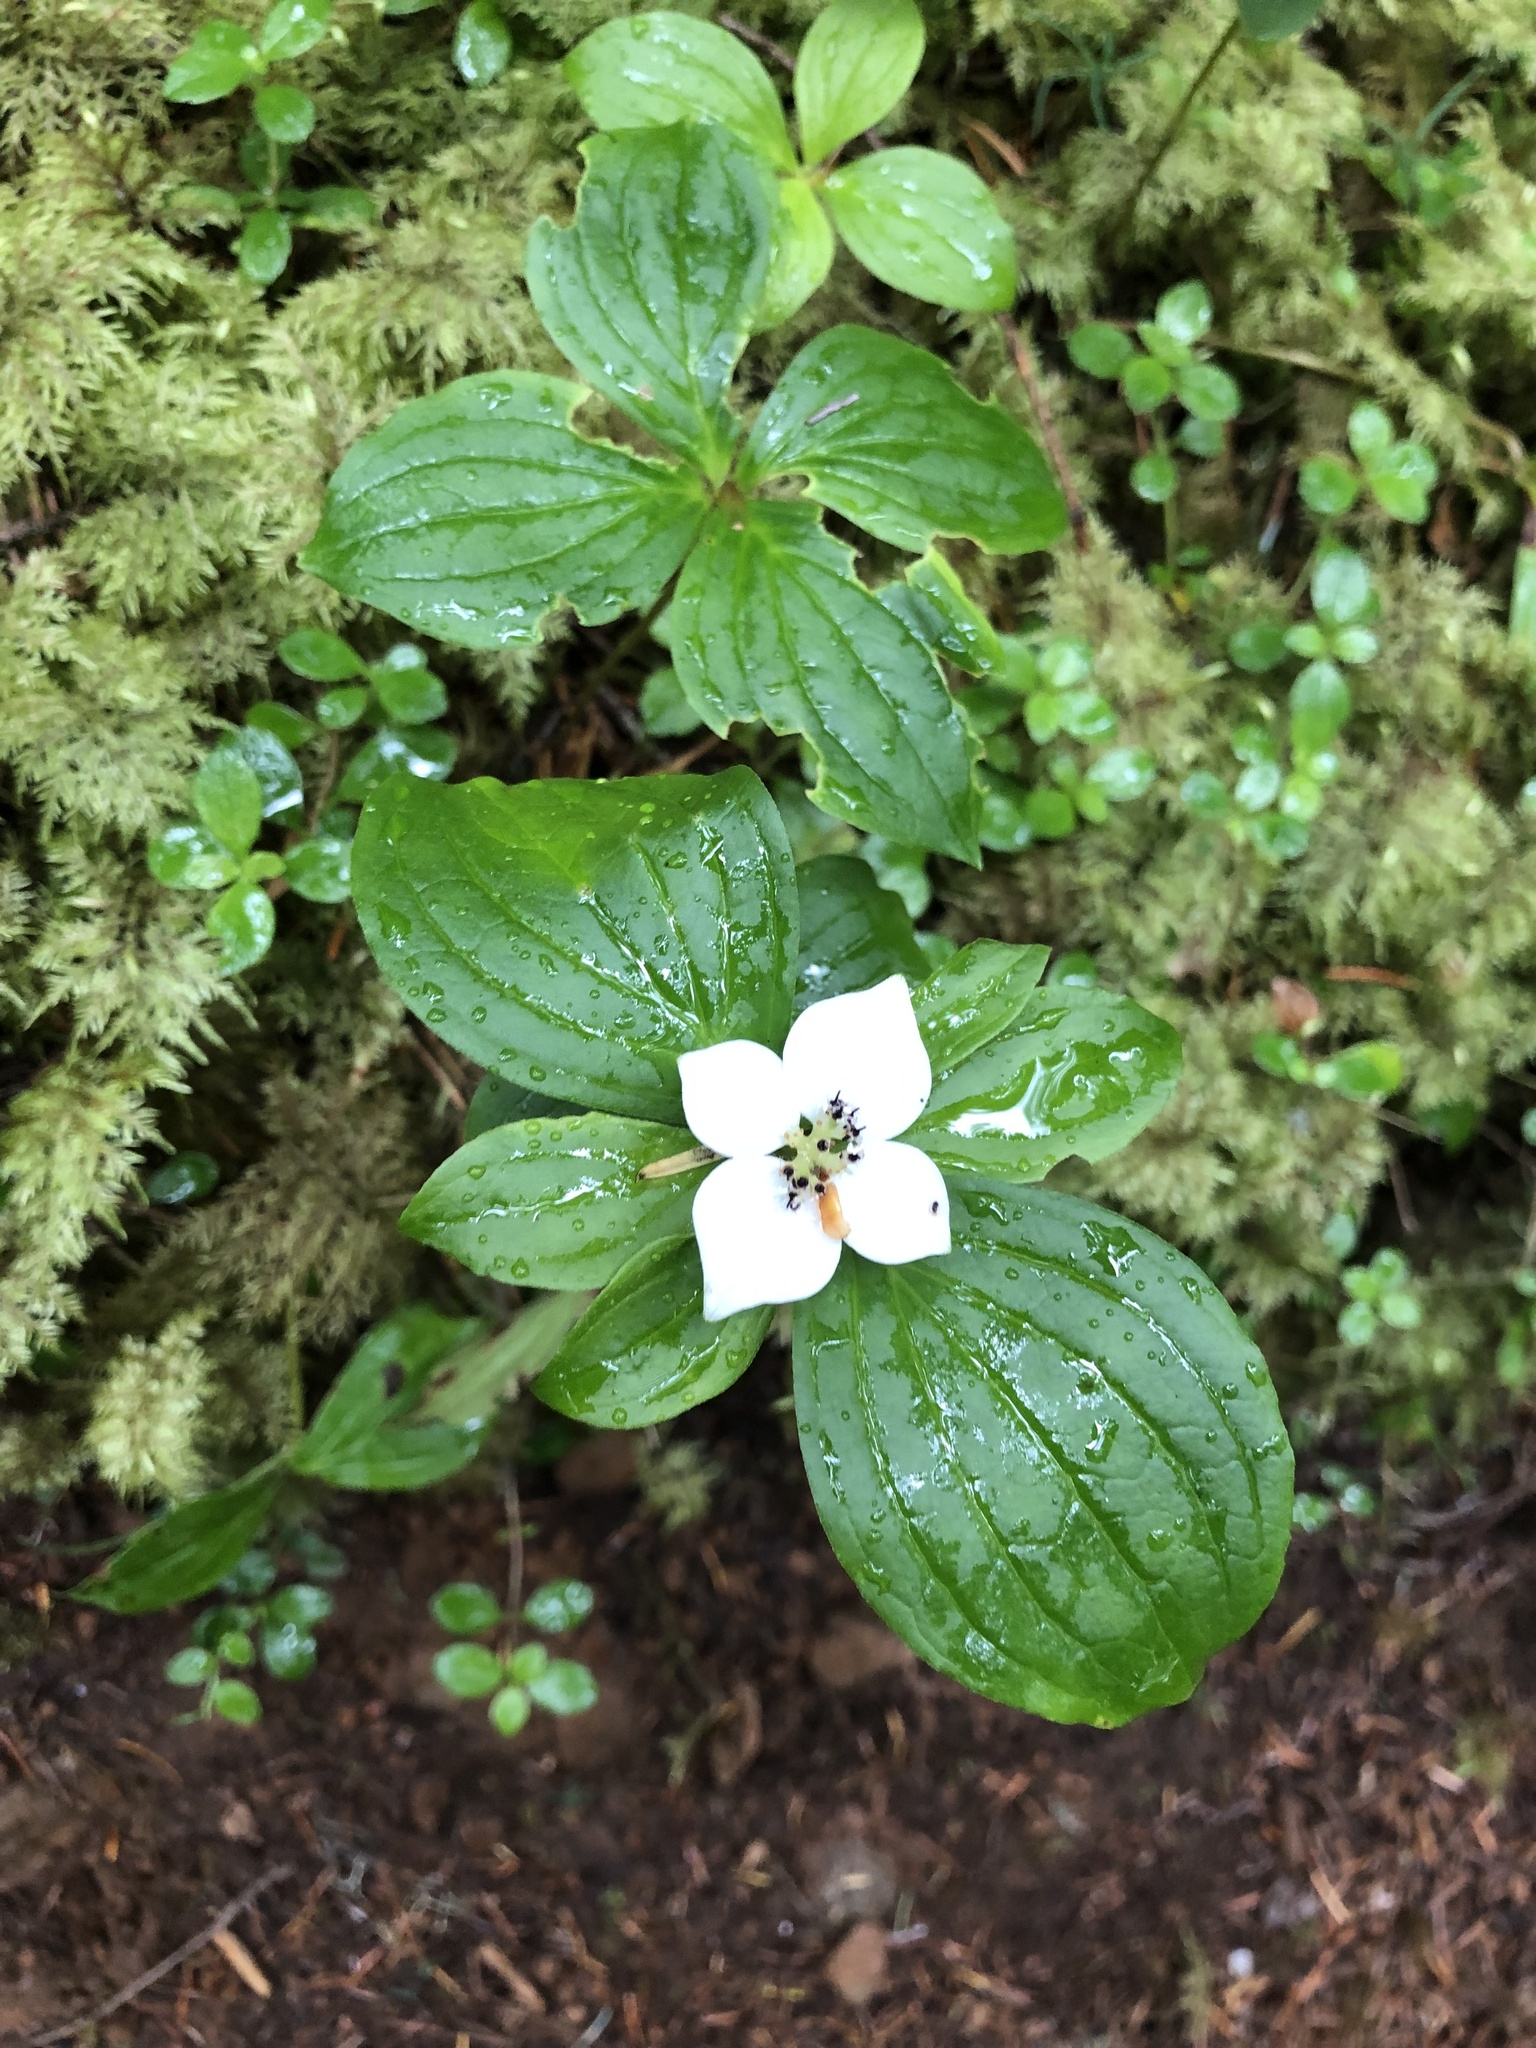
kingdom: Plantae
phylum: Tracheophyta
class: Magnoliopsida
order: Cornales
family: Cornaceae
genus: Cornus
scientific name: Cornus unalaschkensis
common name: Alaska bunchberry
